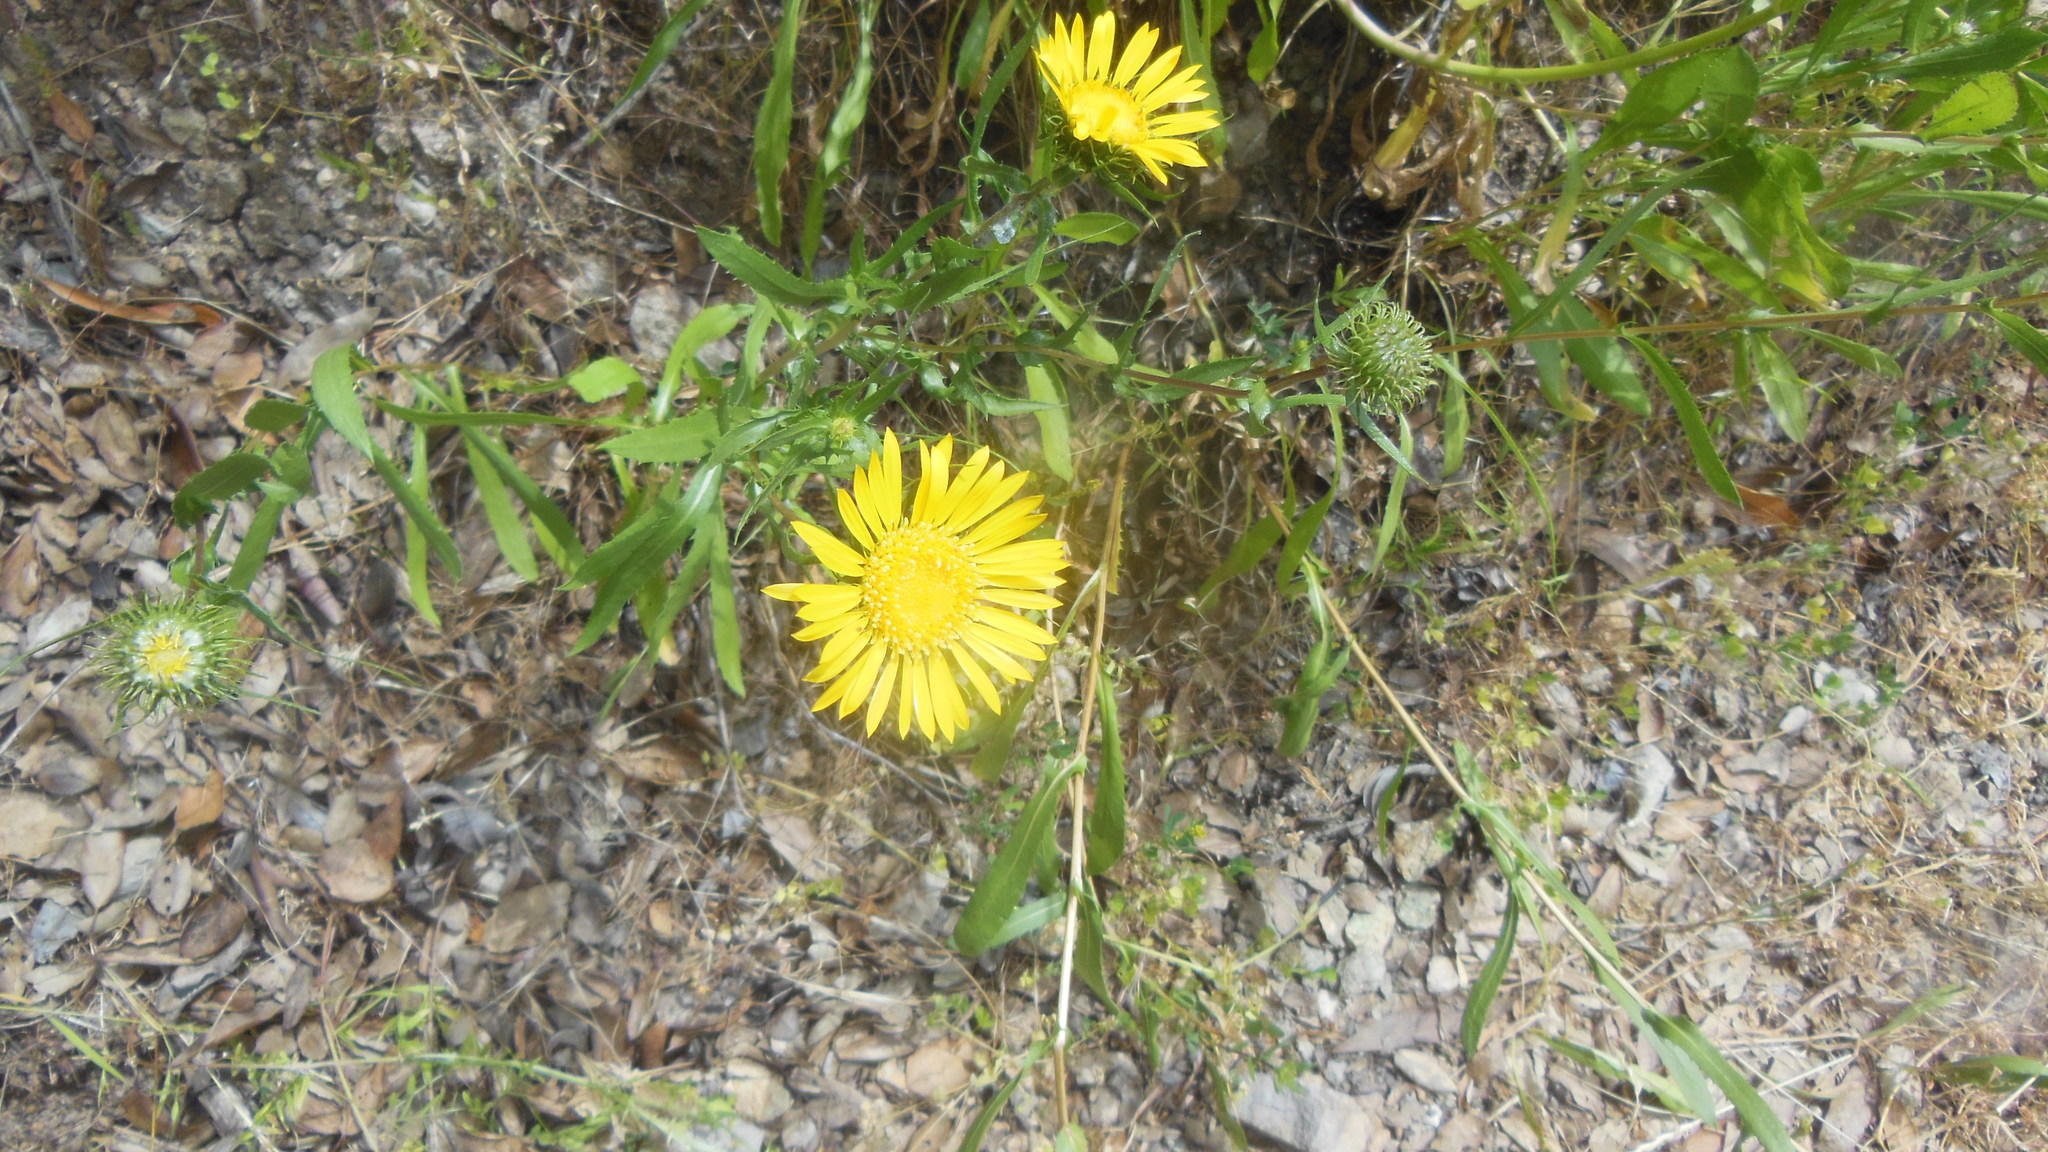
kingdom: Plantae
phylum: Tracheophyta
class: Magnoliopsida
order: Asterales
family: Asteraceae
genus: Grindelia
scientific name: Grindelia hirsutula
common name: Hairy gumweed
